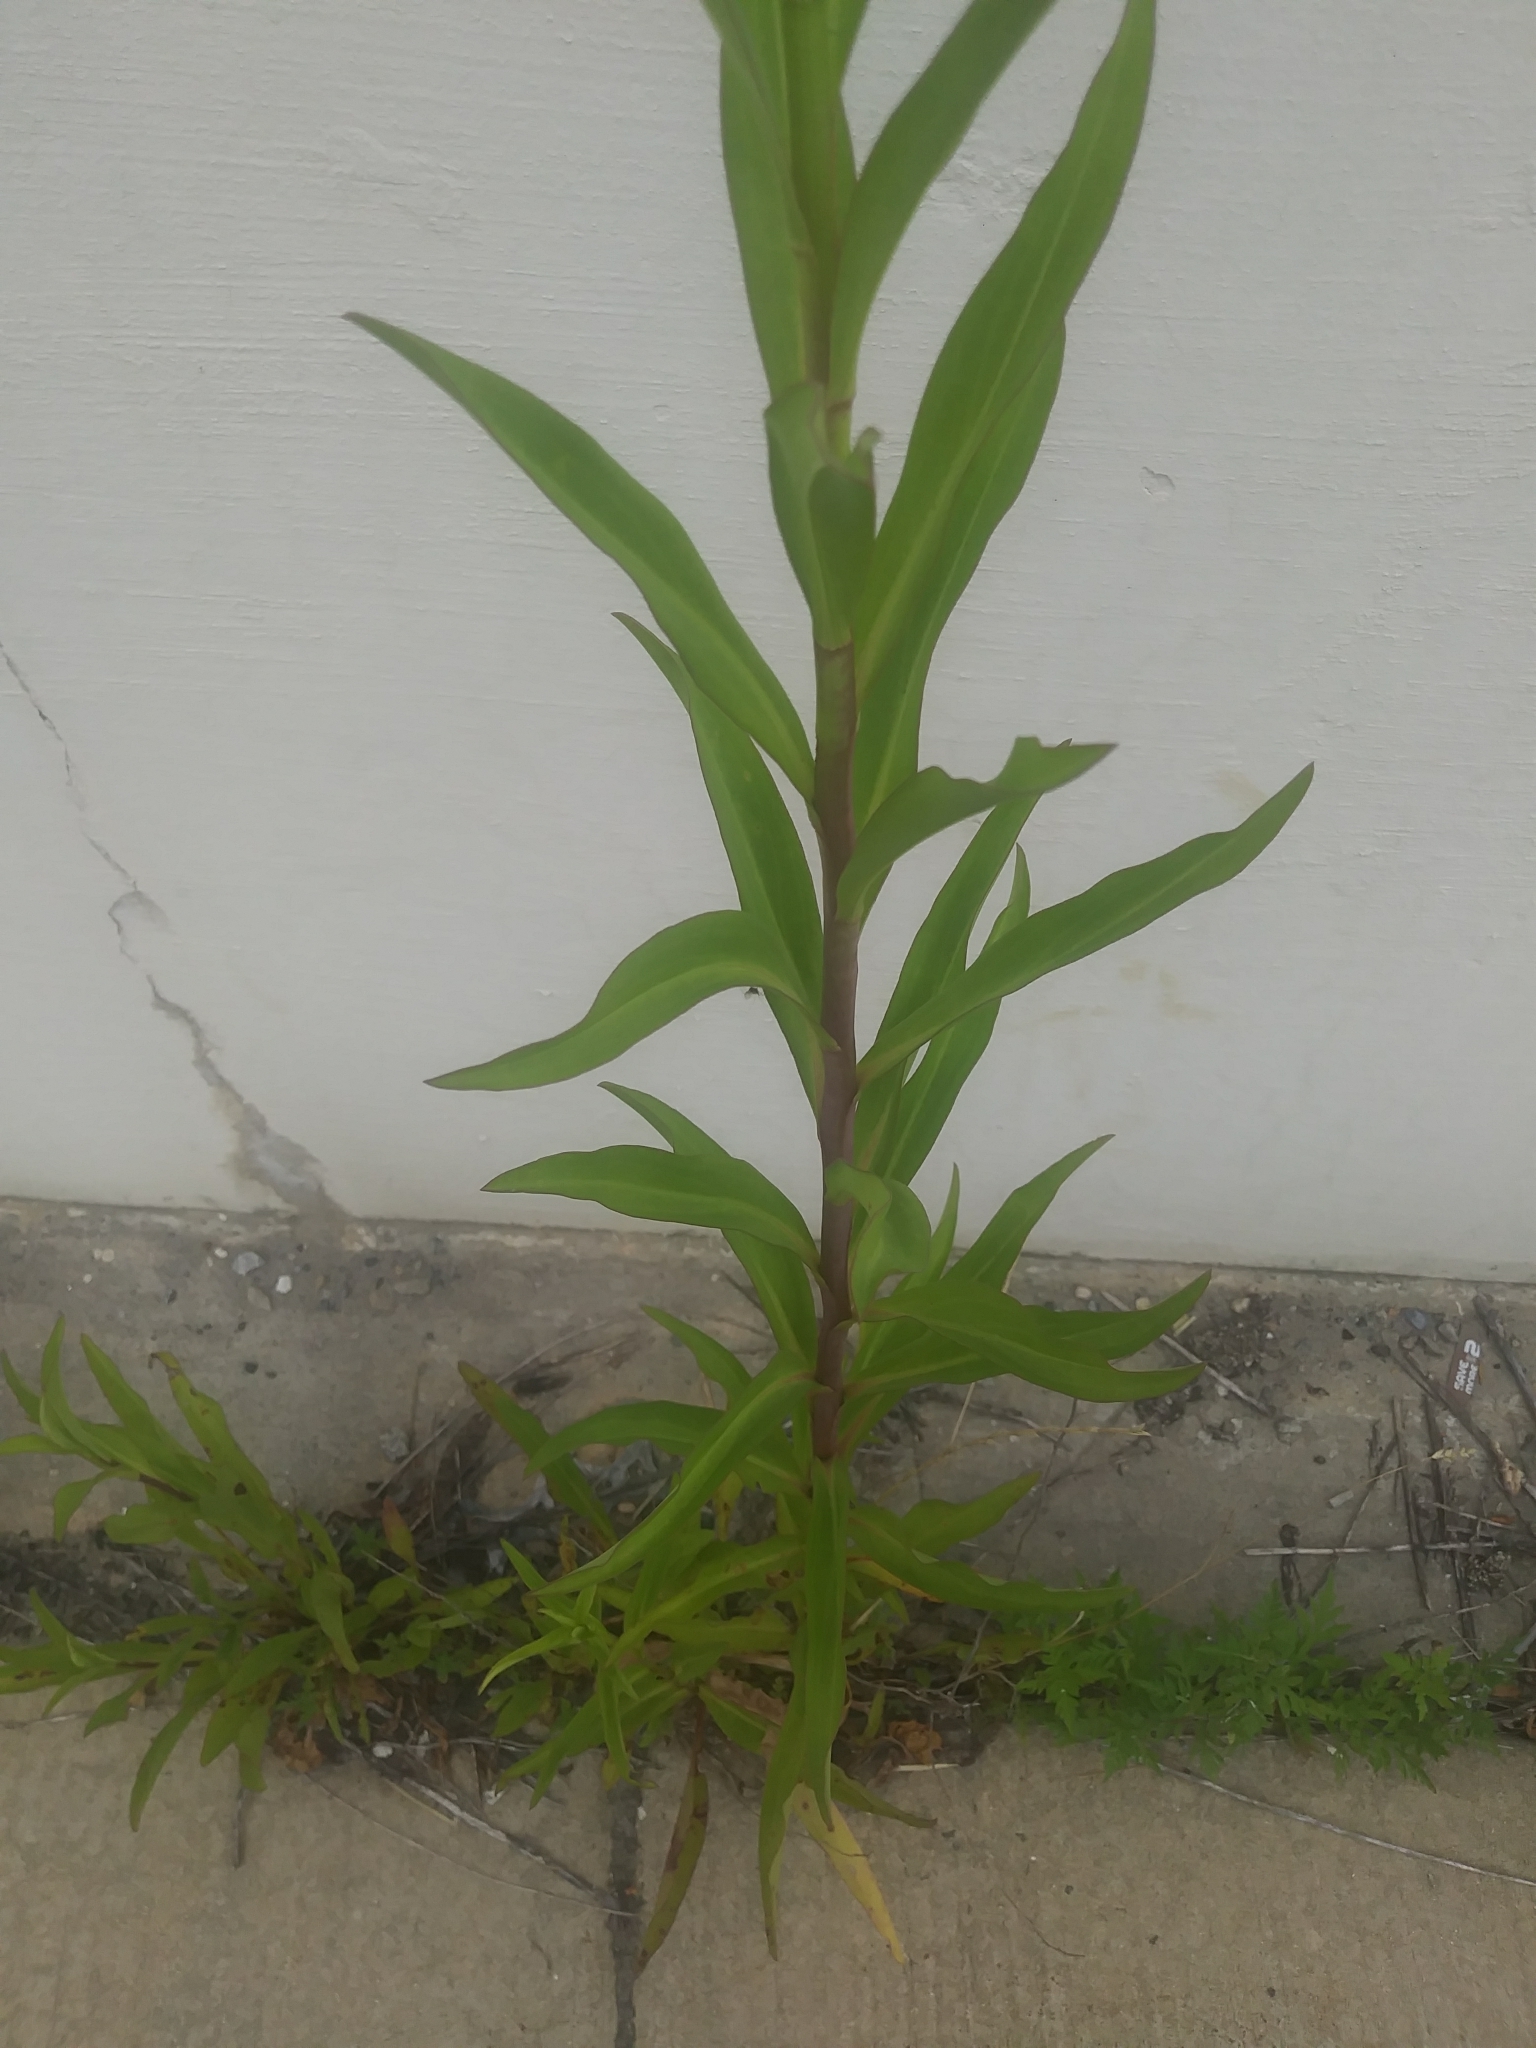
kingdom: Plantae
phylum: Tracheophyta
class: Magnoliopsida
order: Asterales
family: Asteraceae
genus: Solidago
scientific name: Solidago sempervirens
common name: Salt-marsh goldenrod
